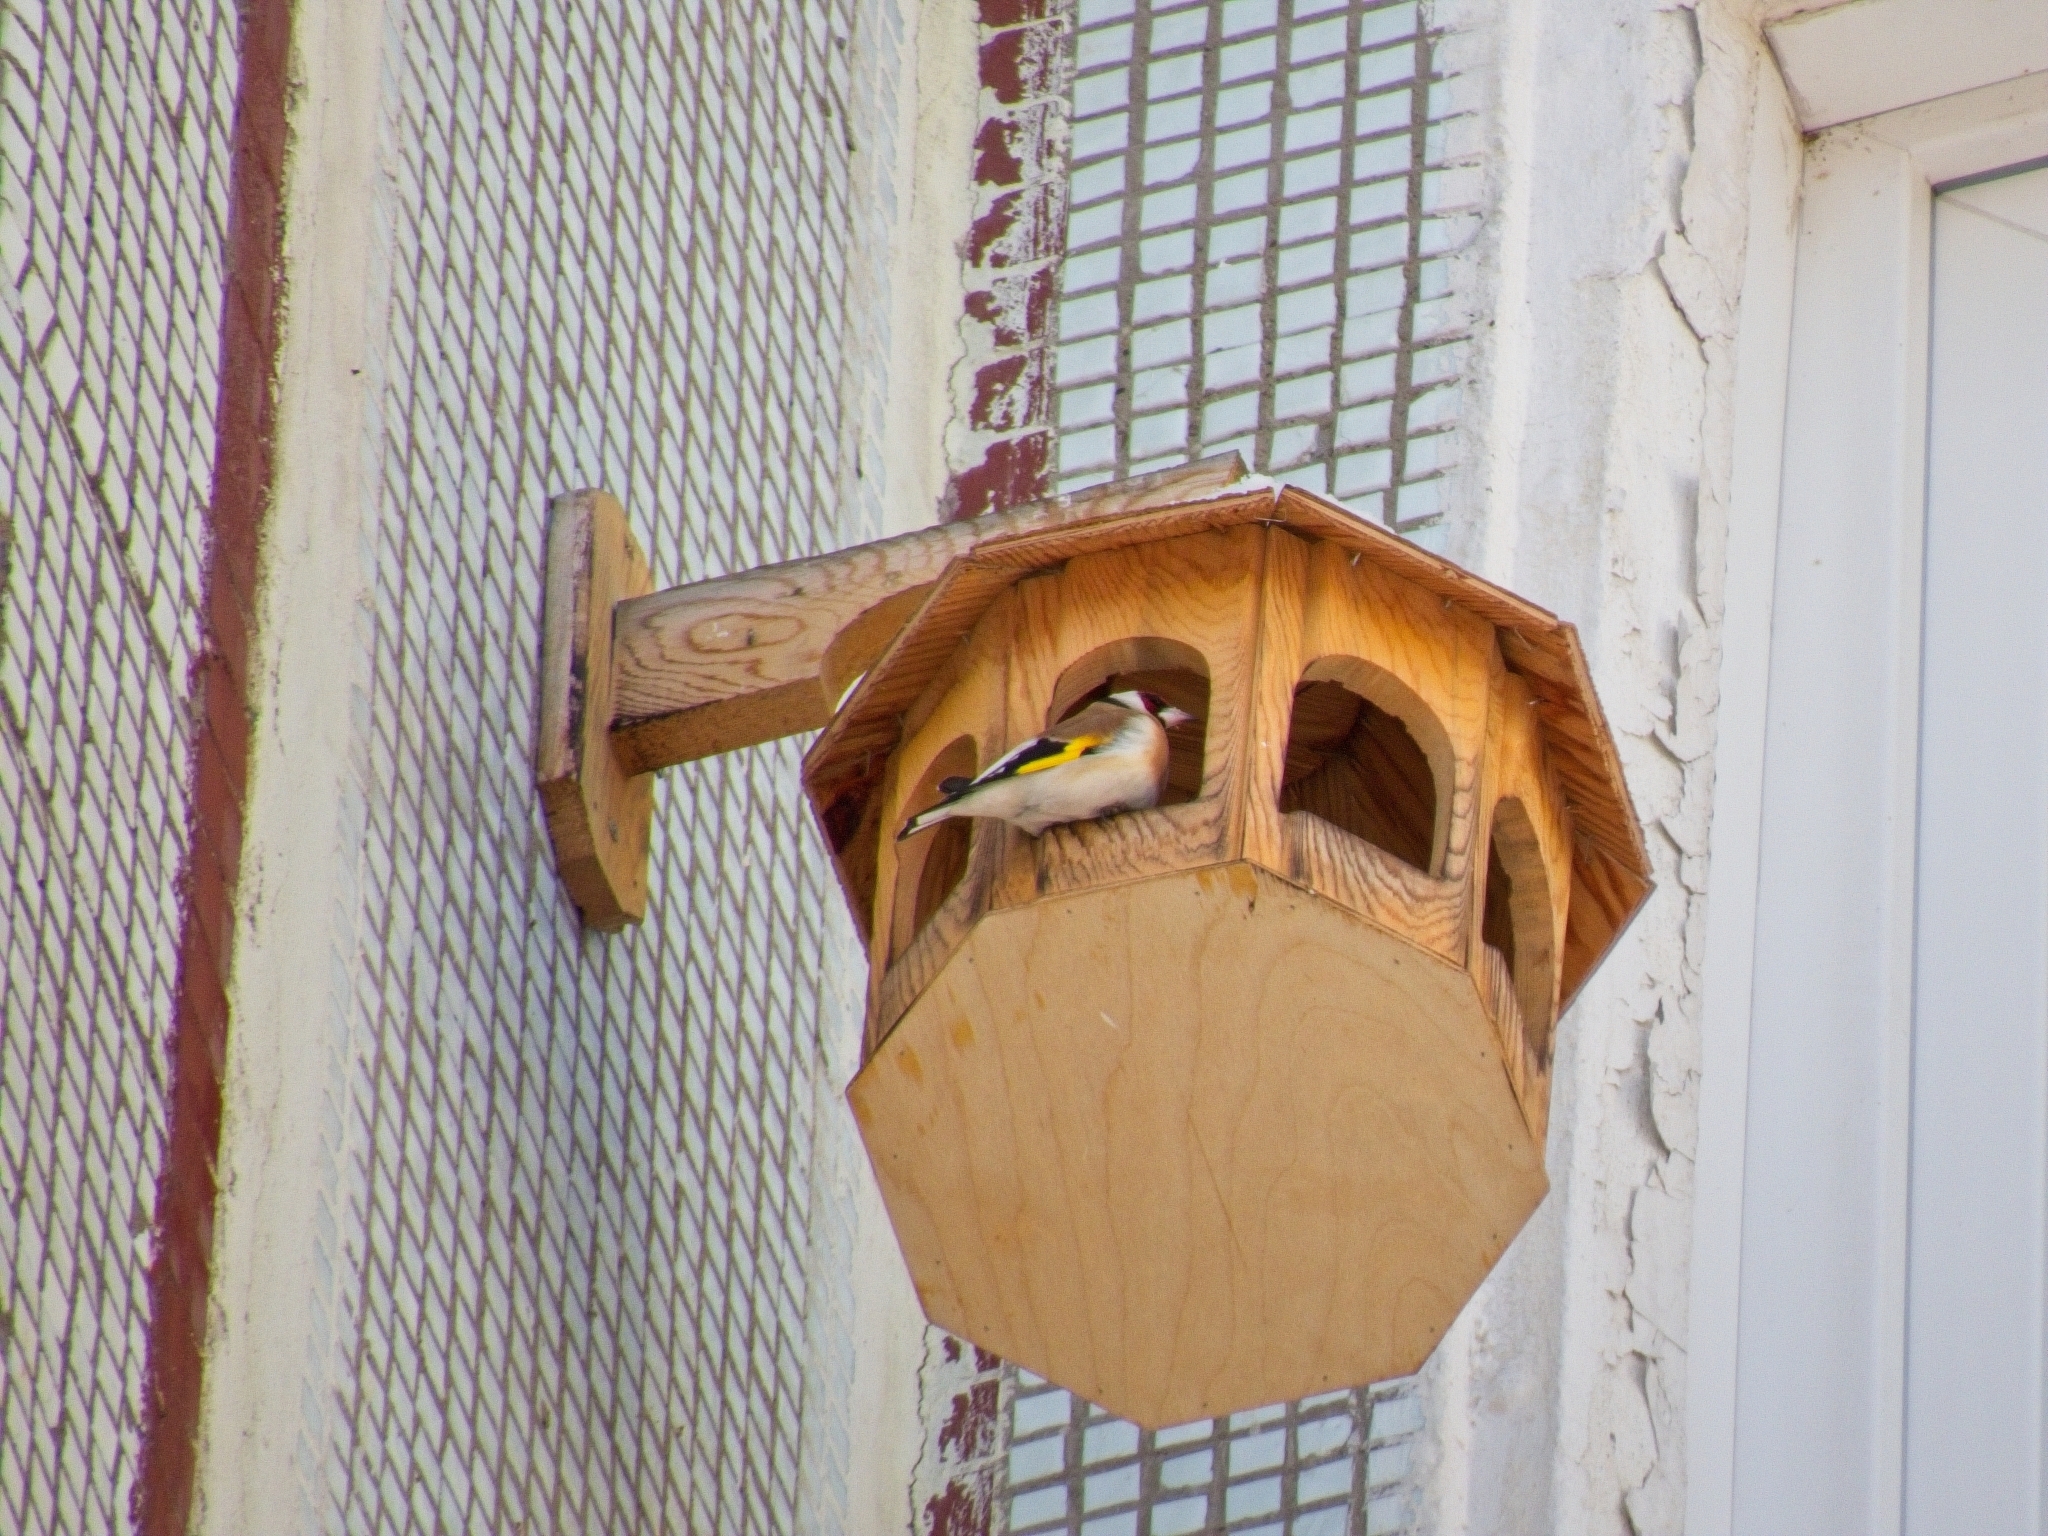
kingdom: Animalia
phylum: Chordata
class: Aves
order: Passeriformes
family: Fringillidae
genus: Carduelis
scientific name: Carduelis carduelis
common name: European goldfinch
